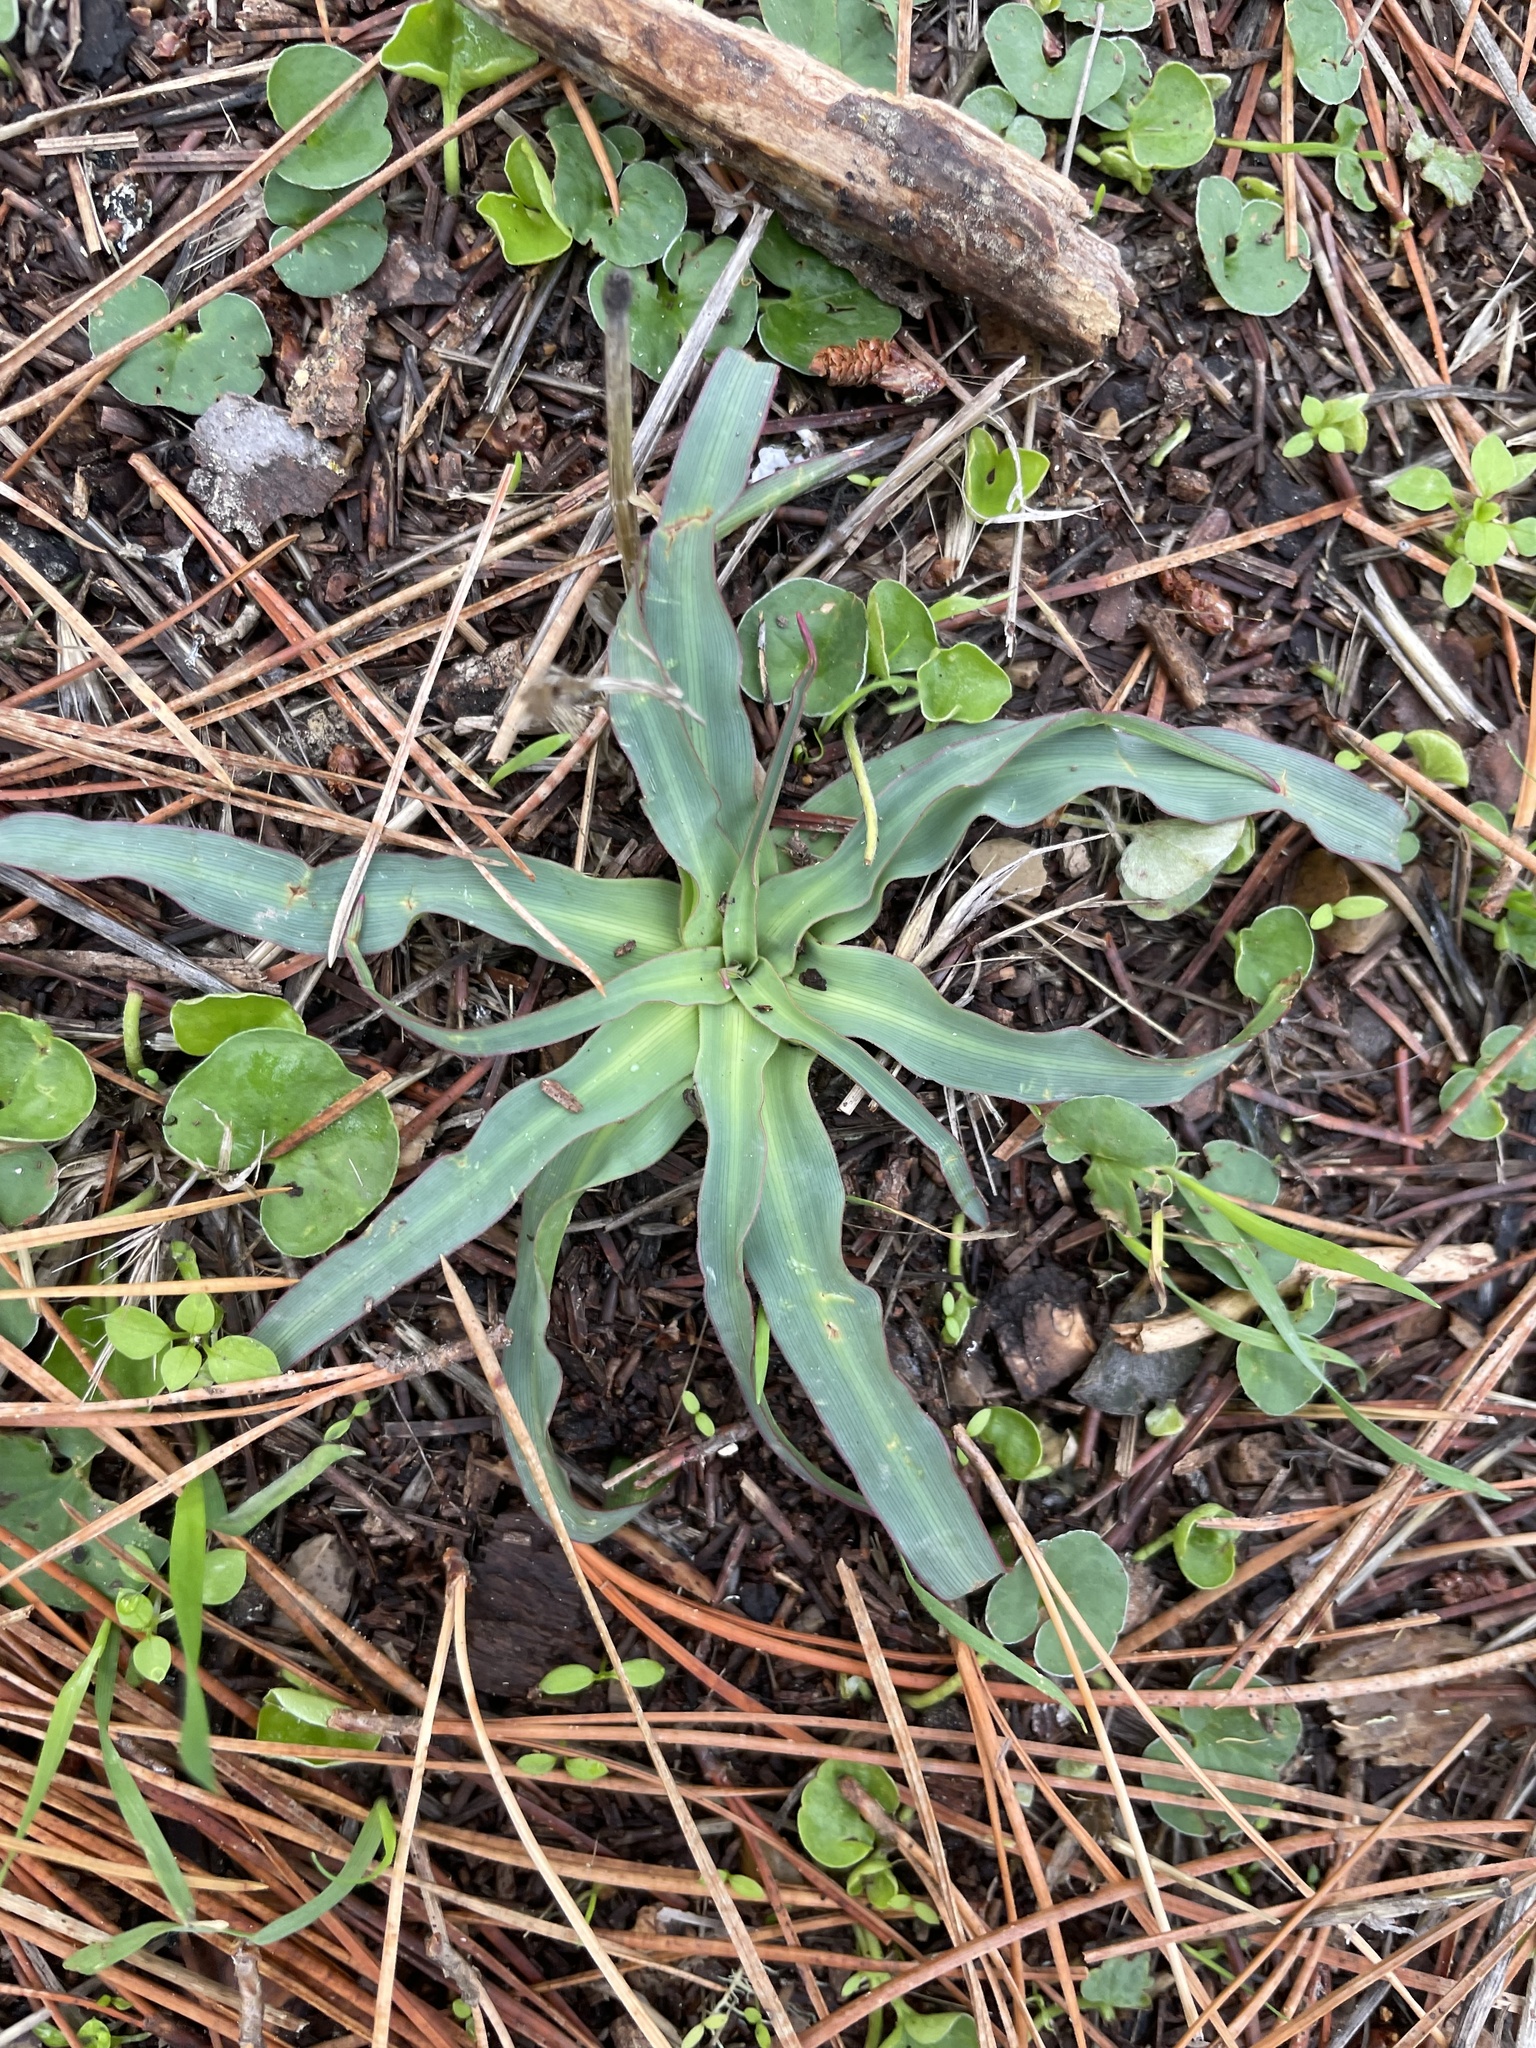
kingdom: Plantae
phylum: Tracheophyta
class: Liliopsida
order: Asparagales
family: Asparagaceae
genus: Chlorogalum
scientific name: Chlorogalum pomeridianum
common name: Amole
